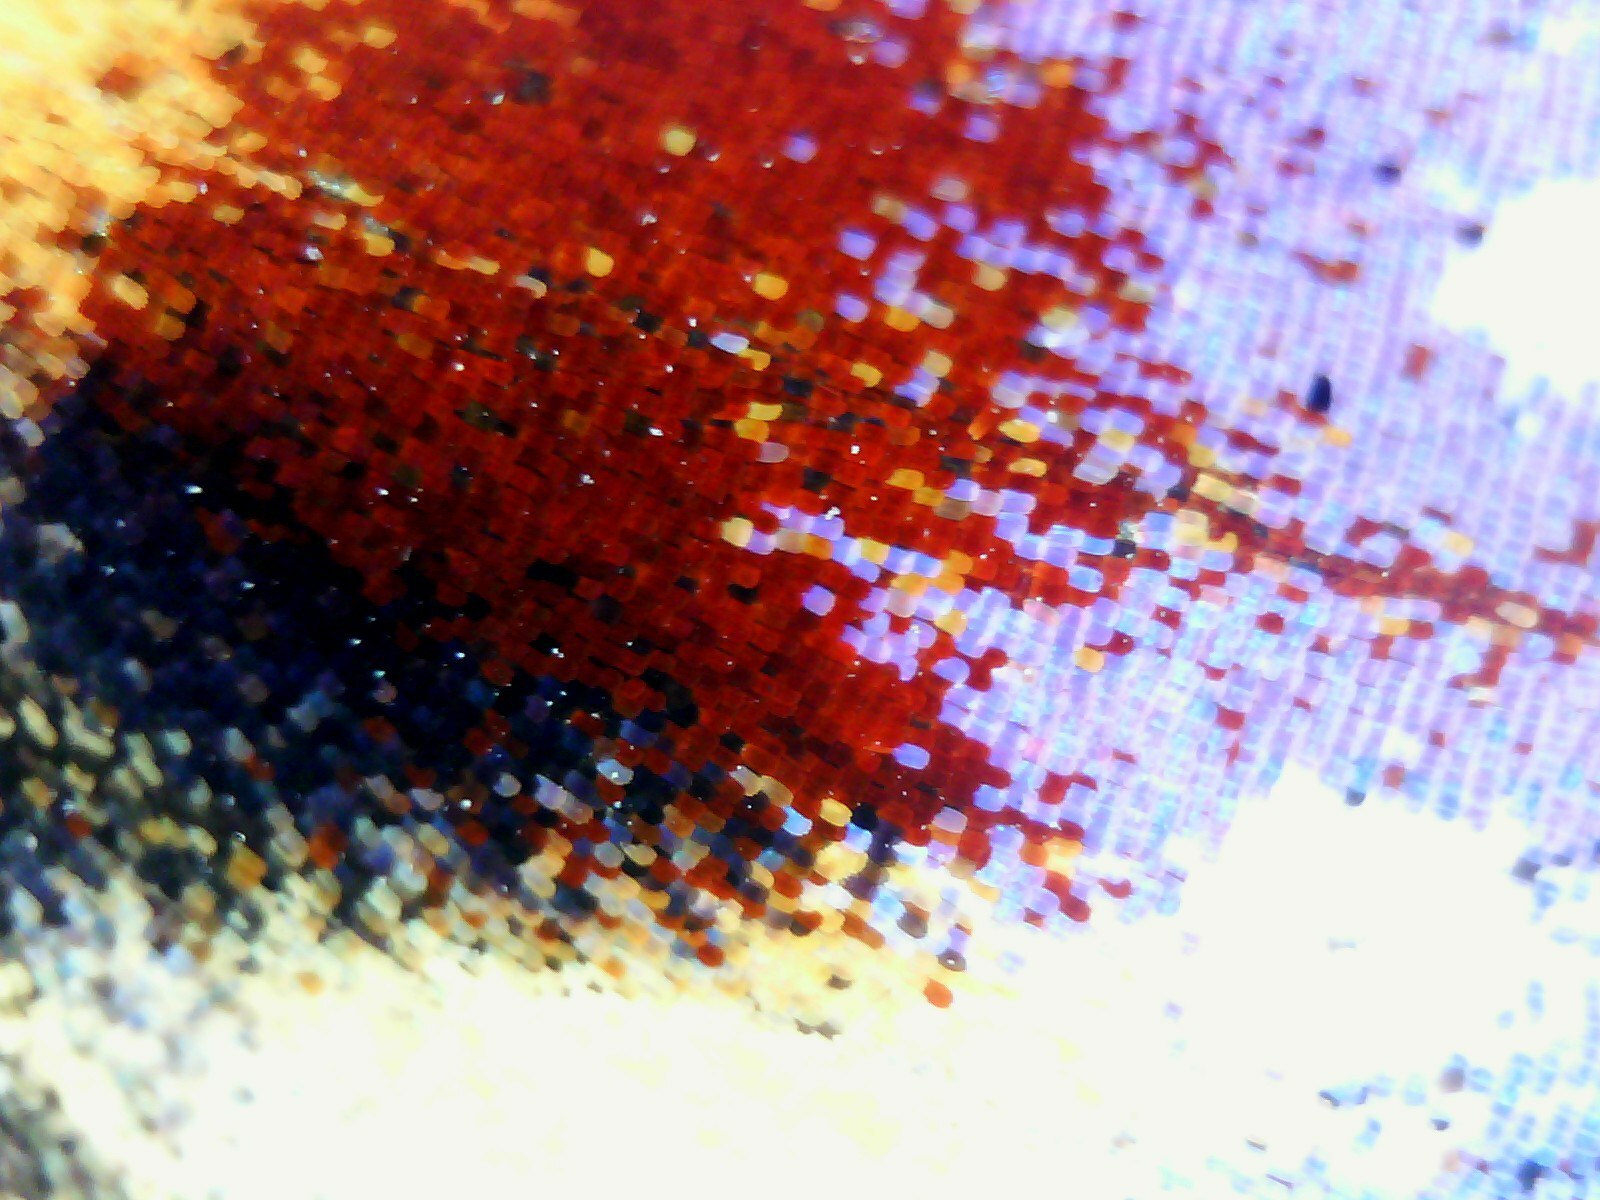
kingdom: Animalia
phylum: Arthropoda
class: Insecta
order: Lepidoptera
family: Nymphalidae
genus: Aglais
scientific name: Aglais io
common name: Peacock
